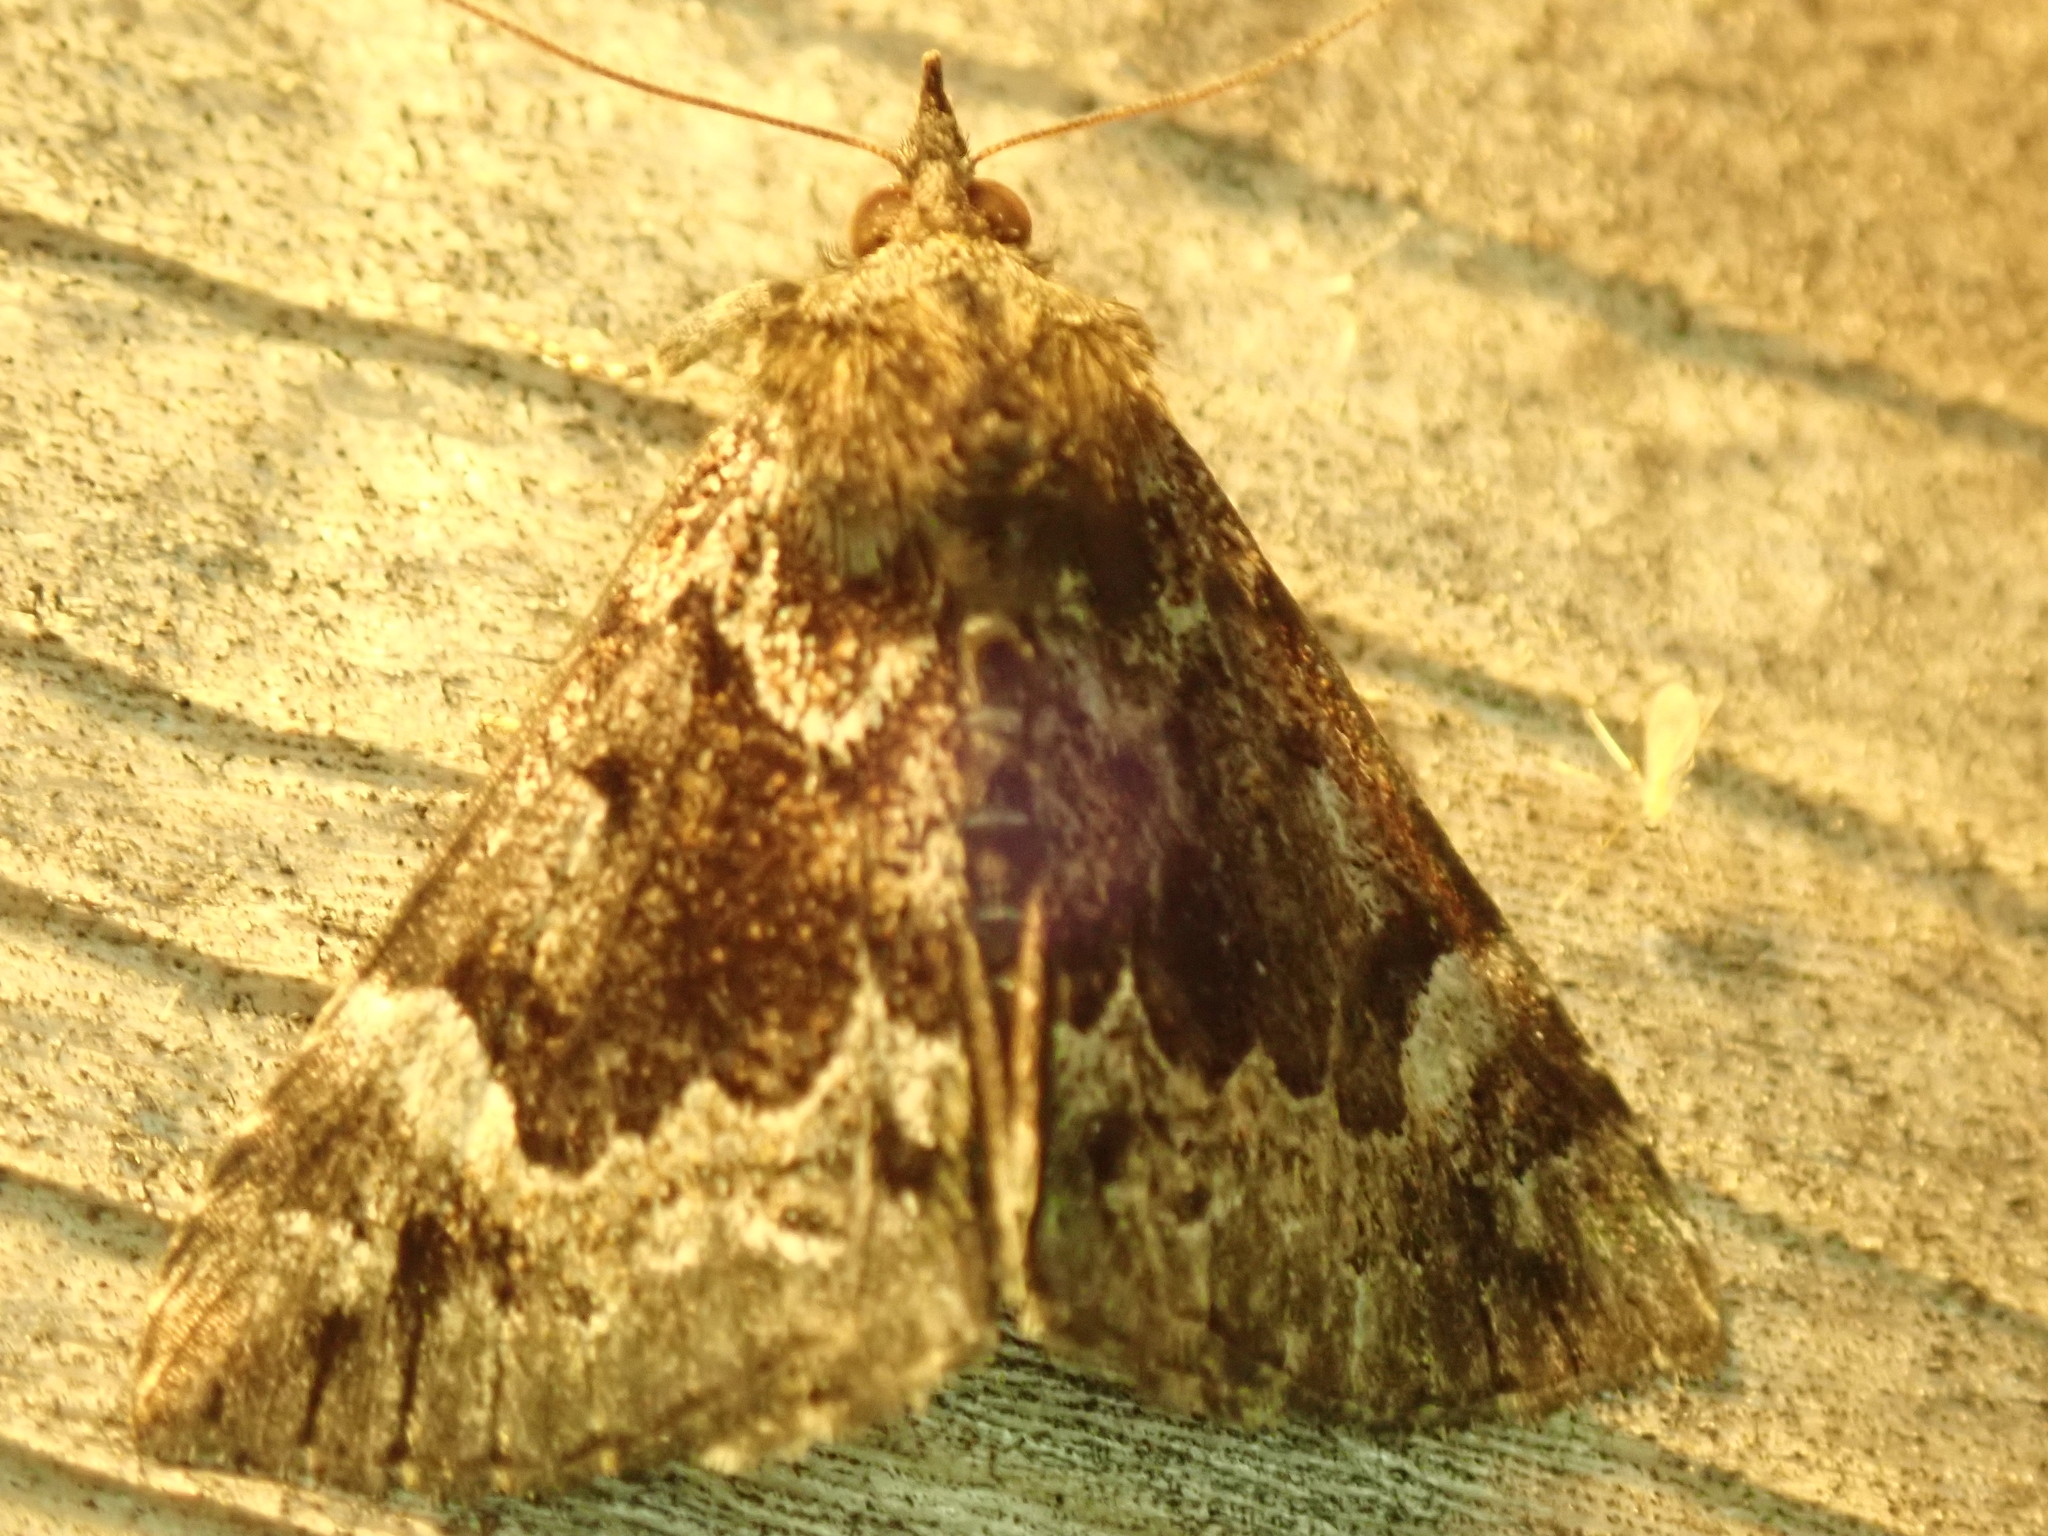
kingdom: Animalia
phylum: Arthropoda
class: Insecta
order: Lepidoptera
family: Erebidae
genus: Hypena
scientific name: Hypena palparia
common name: Mottled bomolocha moth
